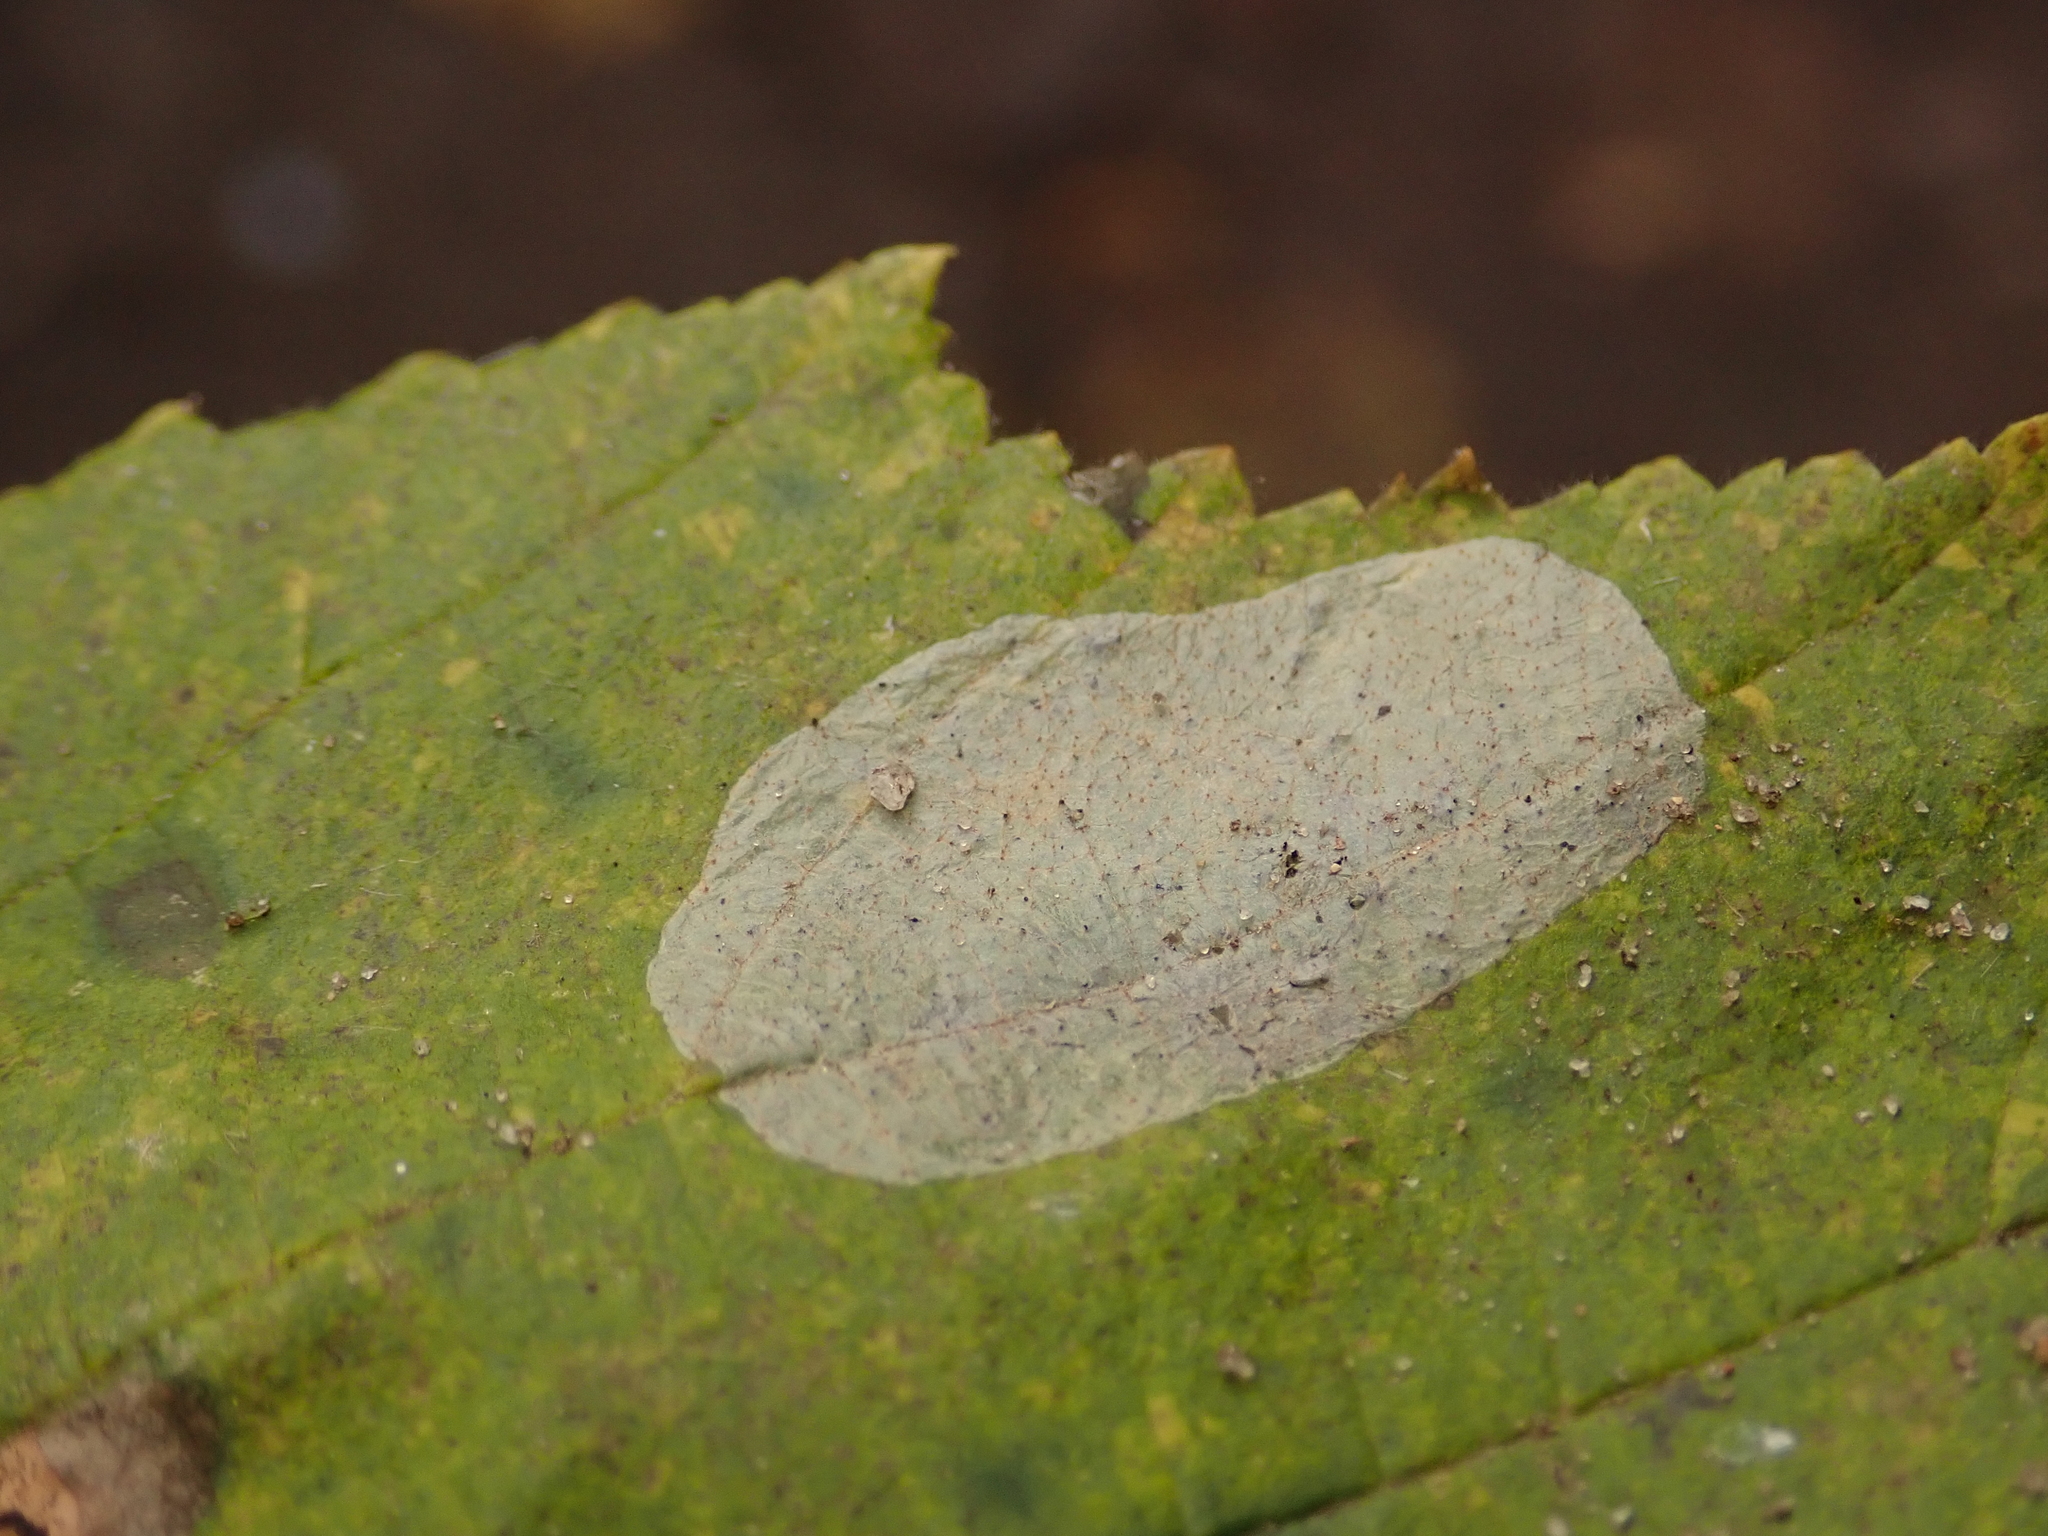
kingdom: Animalia
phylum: Arthropoda
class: Insecta
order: Lepidoptera
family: Gracillariidae
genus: Phyllonorycter
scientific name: Phyllonorycter coryli
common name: Nut-leaf blister moth
